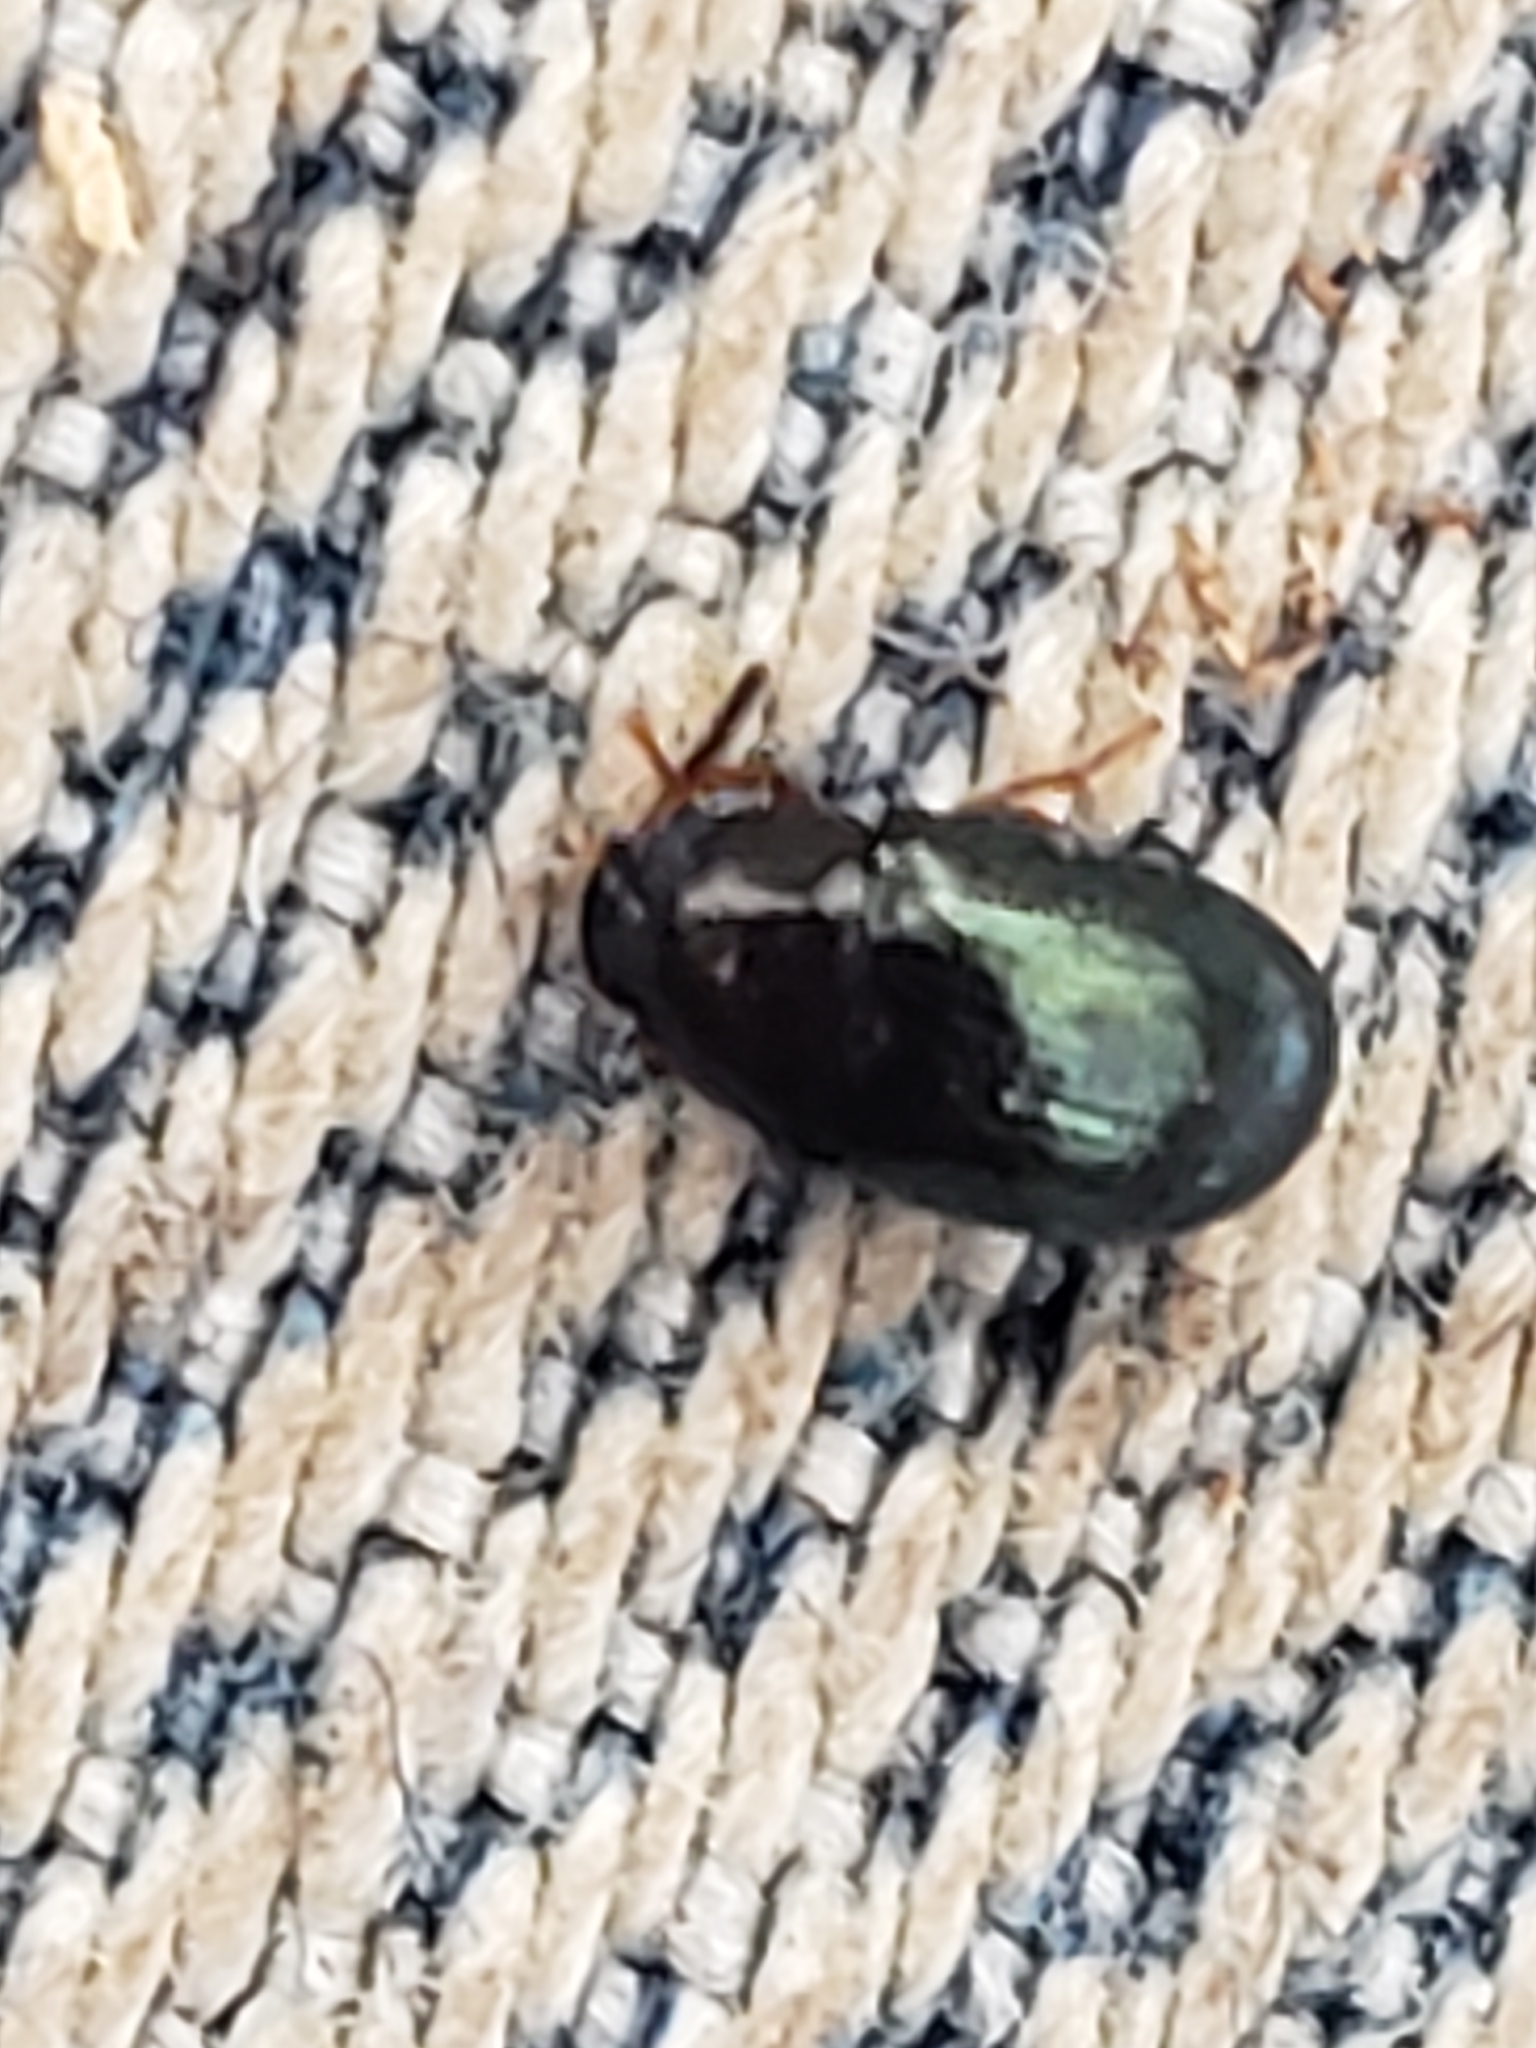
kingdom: Animalia
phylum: Arthropoda
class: Insecta
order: Coleoptera
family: Tenebrionidae
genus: Neomida
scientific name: Neomida bicornis
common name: Two-horned darkling beetle
